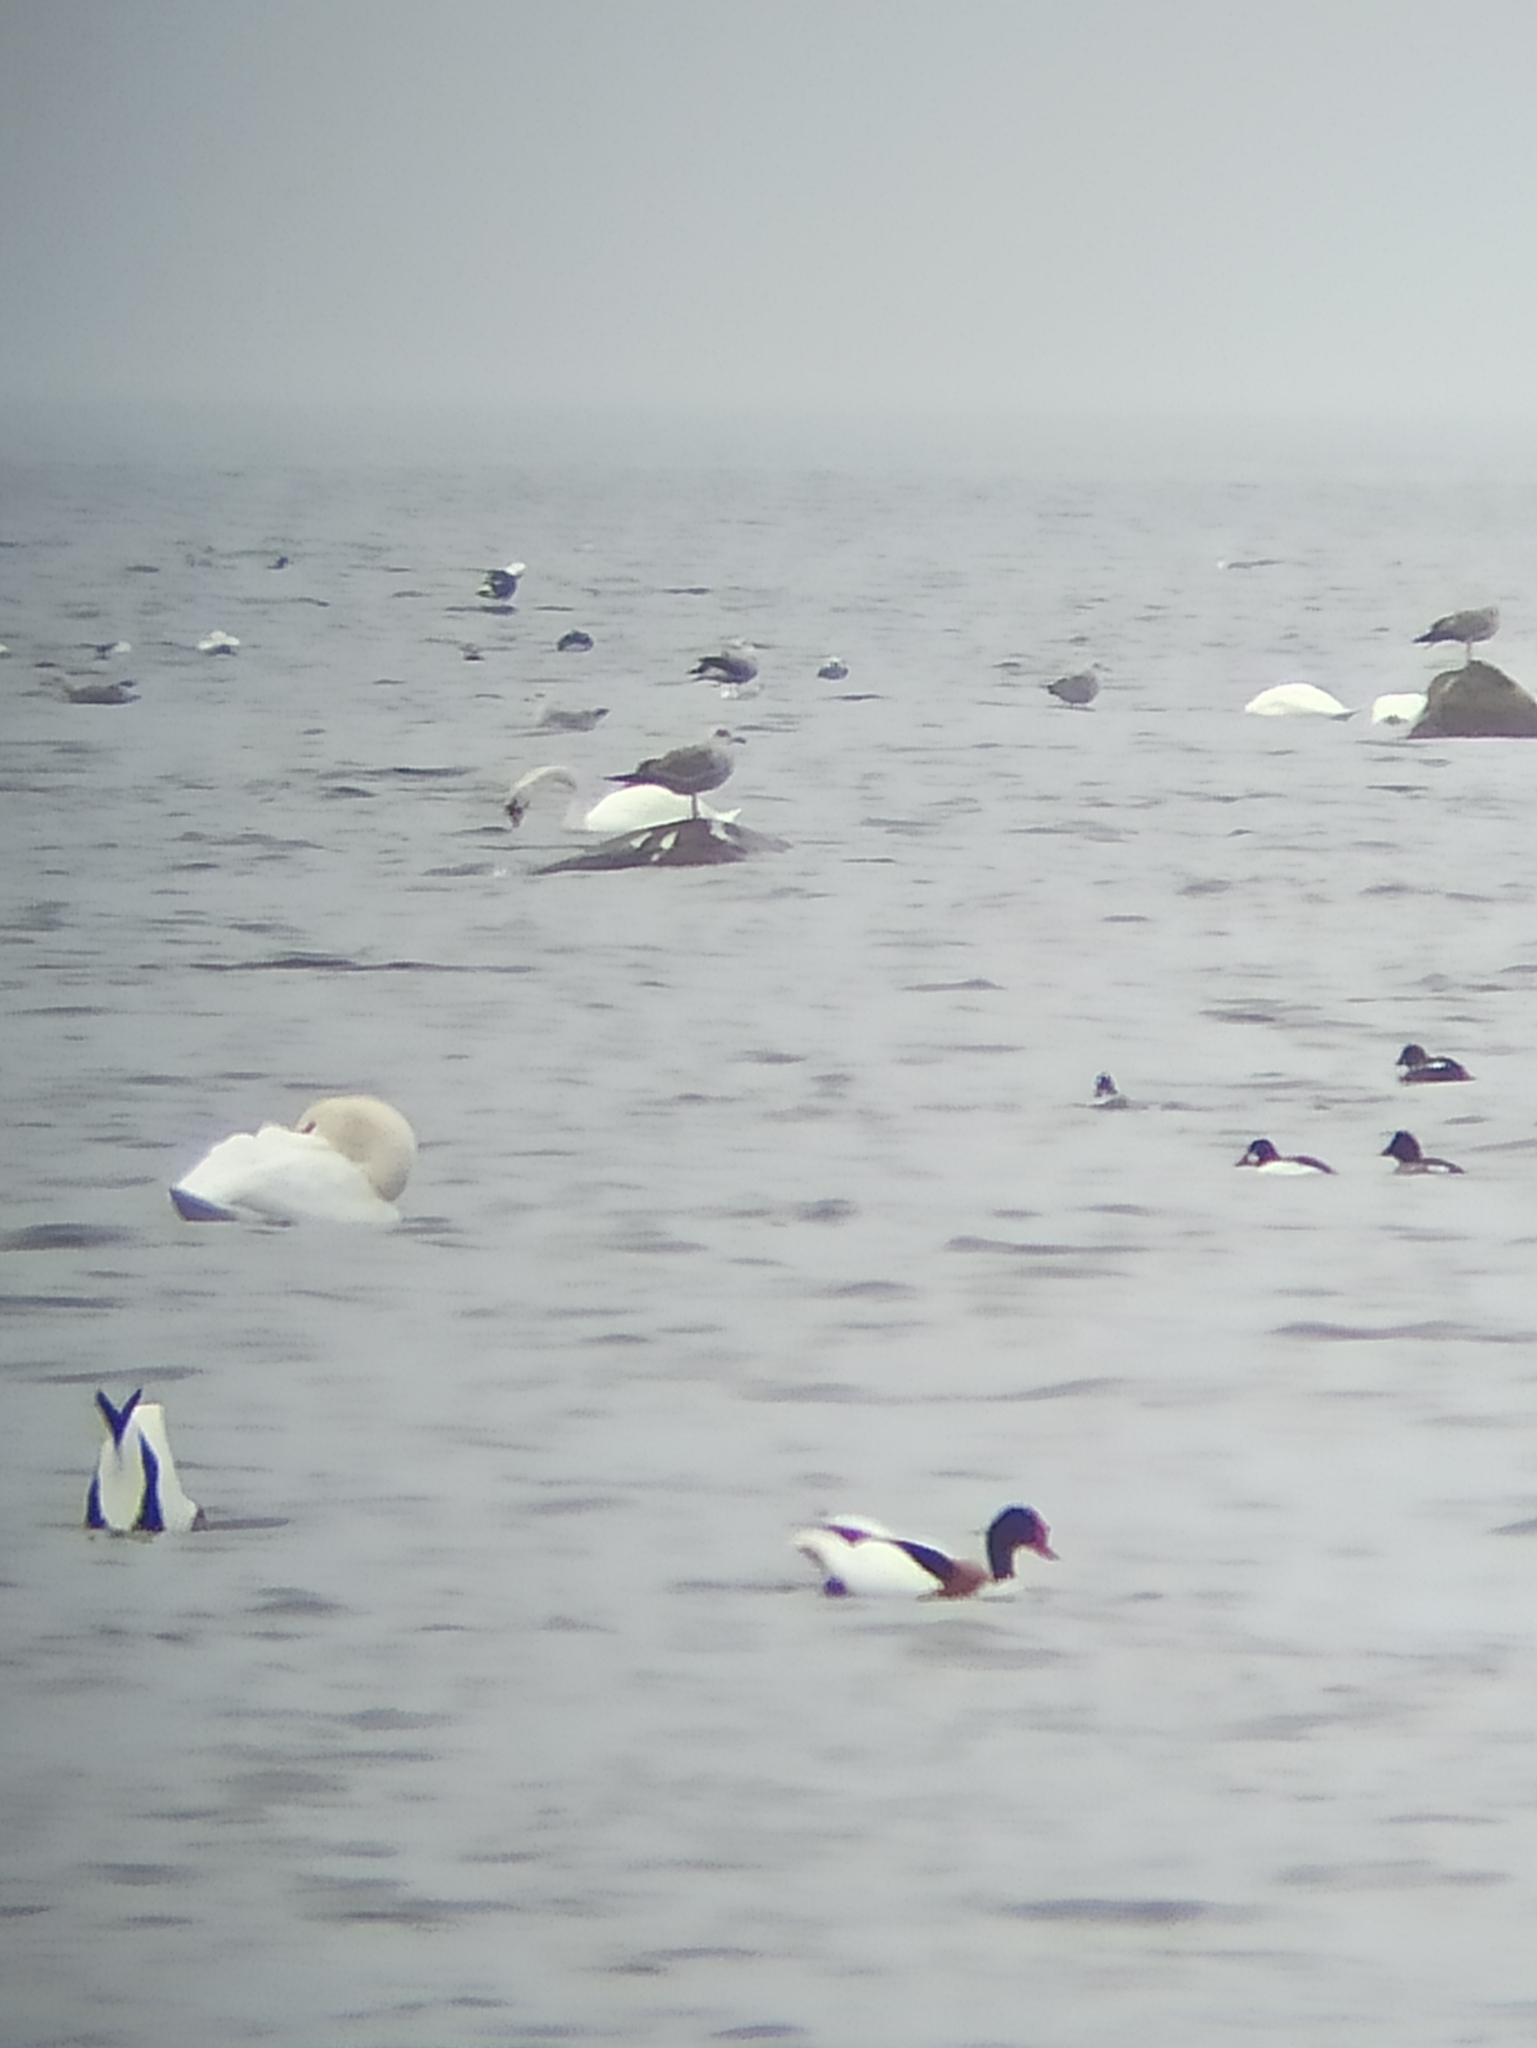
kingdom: Animalia
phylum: Chordata
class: Aves
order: Anseriformes
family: Anatidae
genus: Bucephala
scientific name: Bucephala clangula
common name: Common goldeneye
